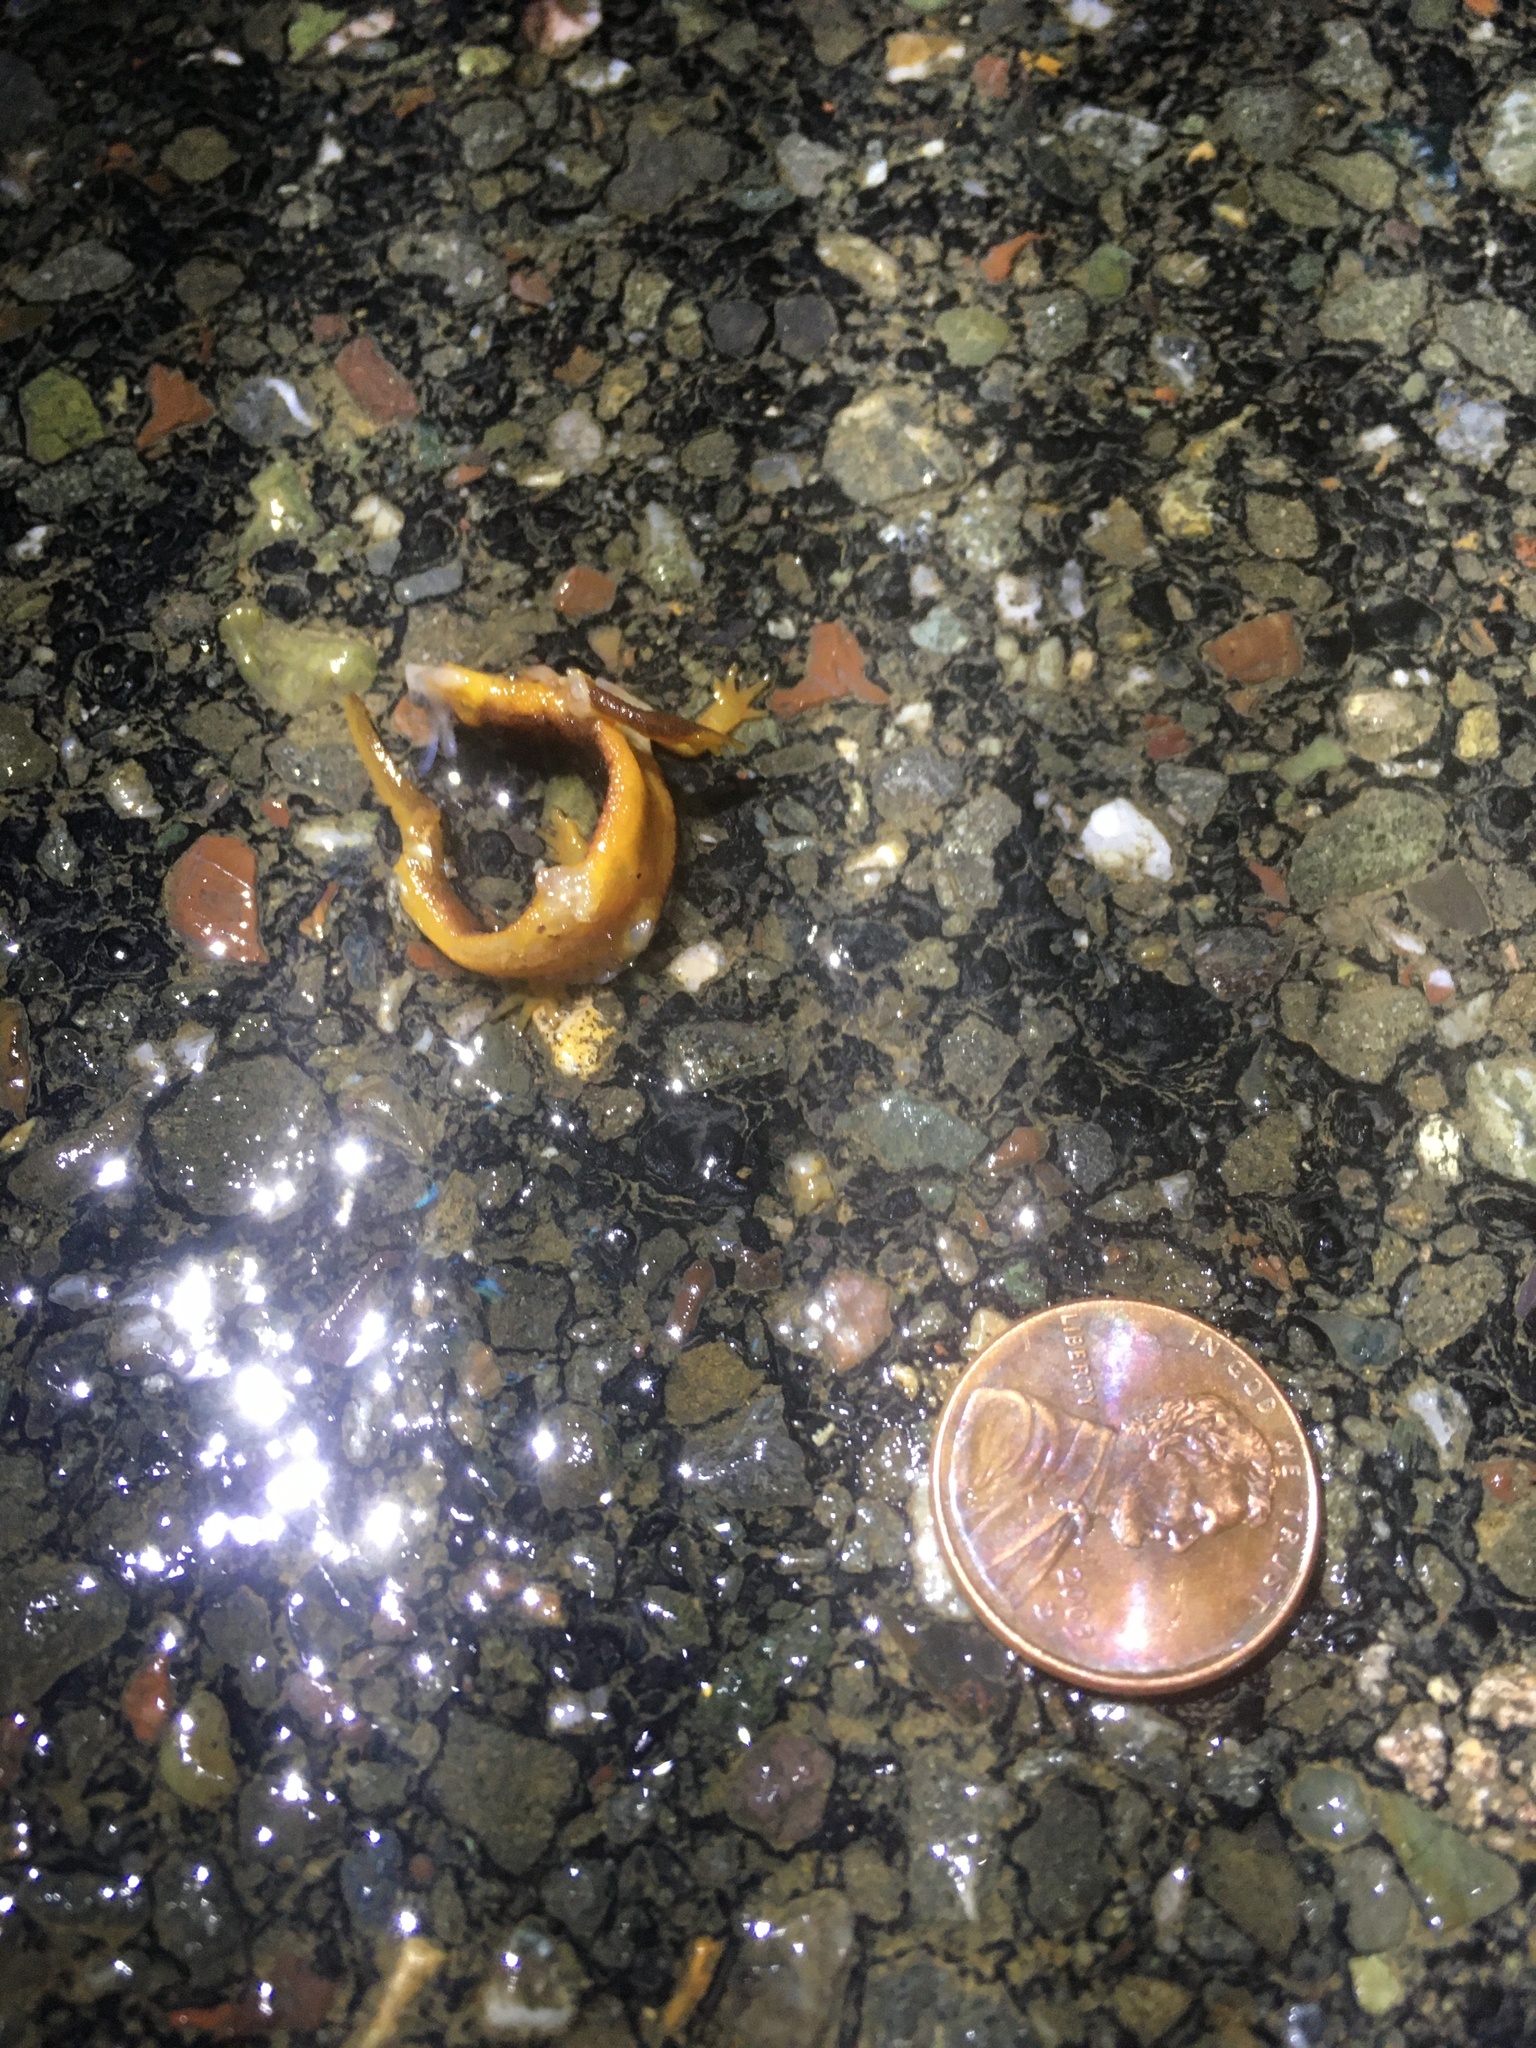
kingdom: Animalia
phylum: Chordata
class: Amphibia
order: Caudata
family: Salamandridae
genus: Taricha
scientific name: Taricha
